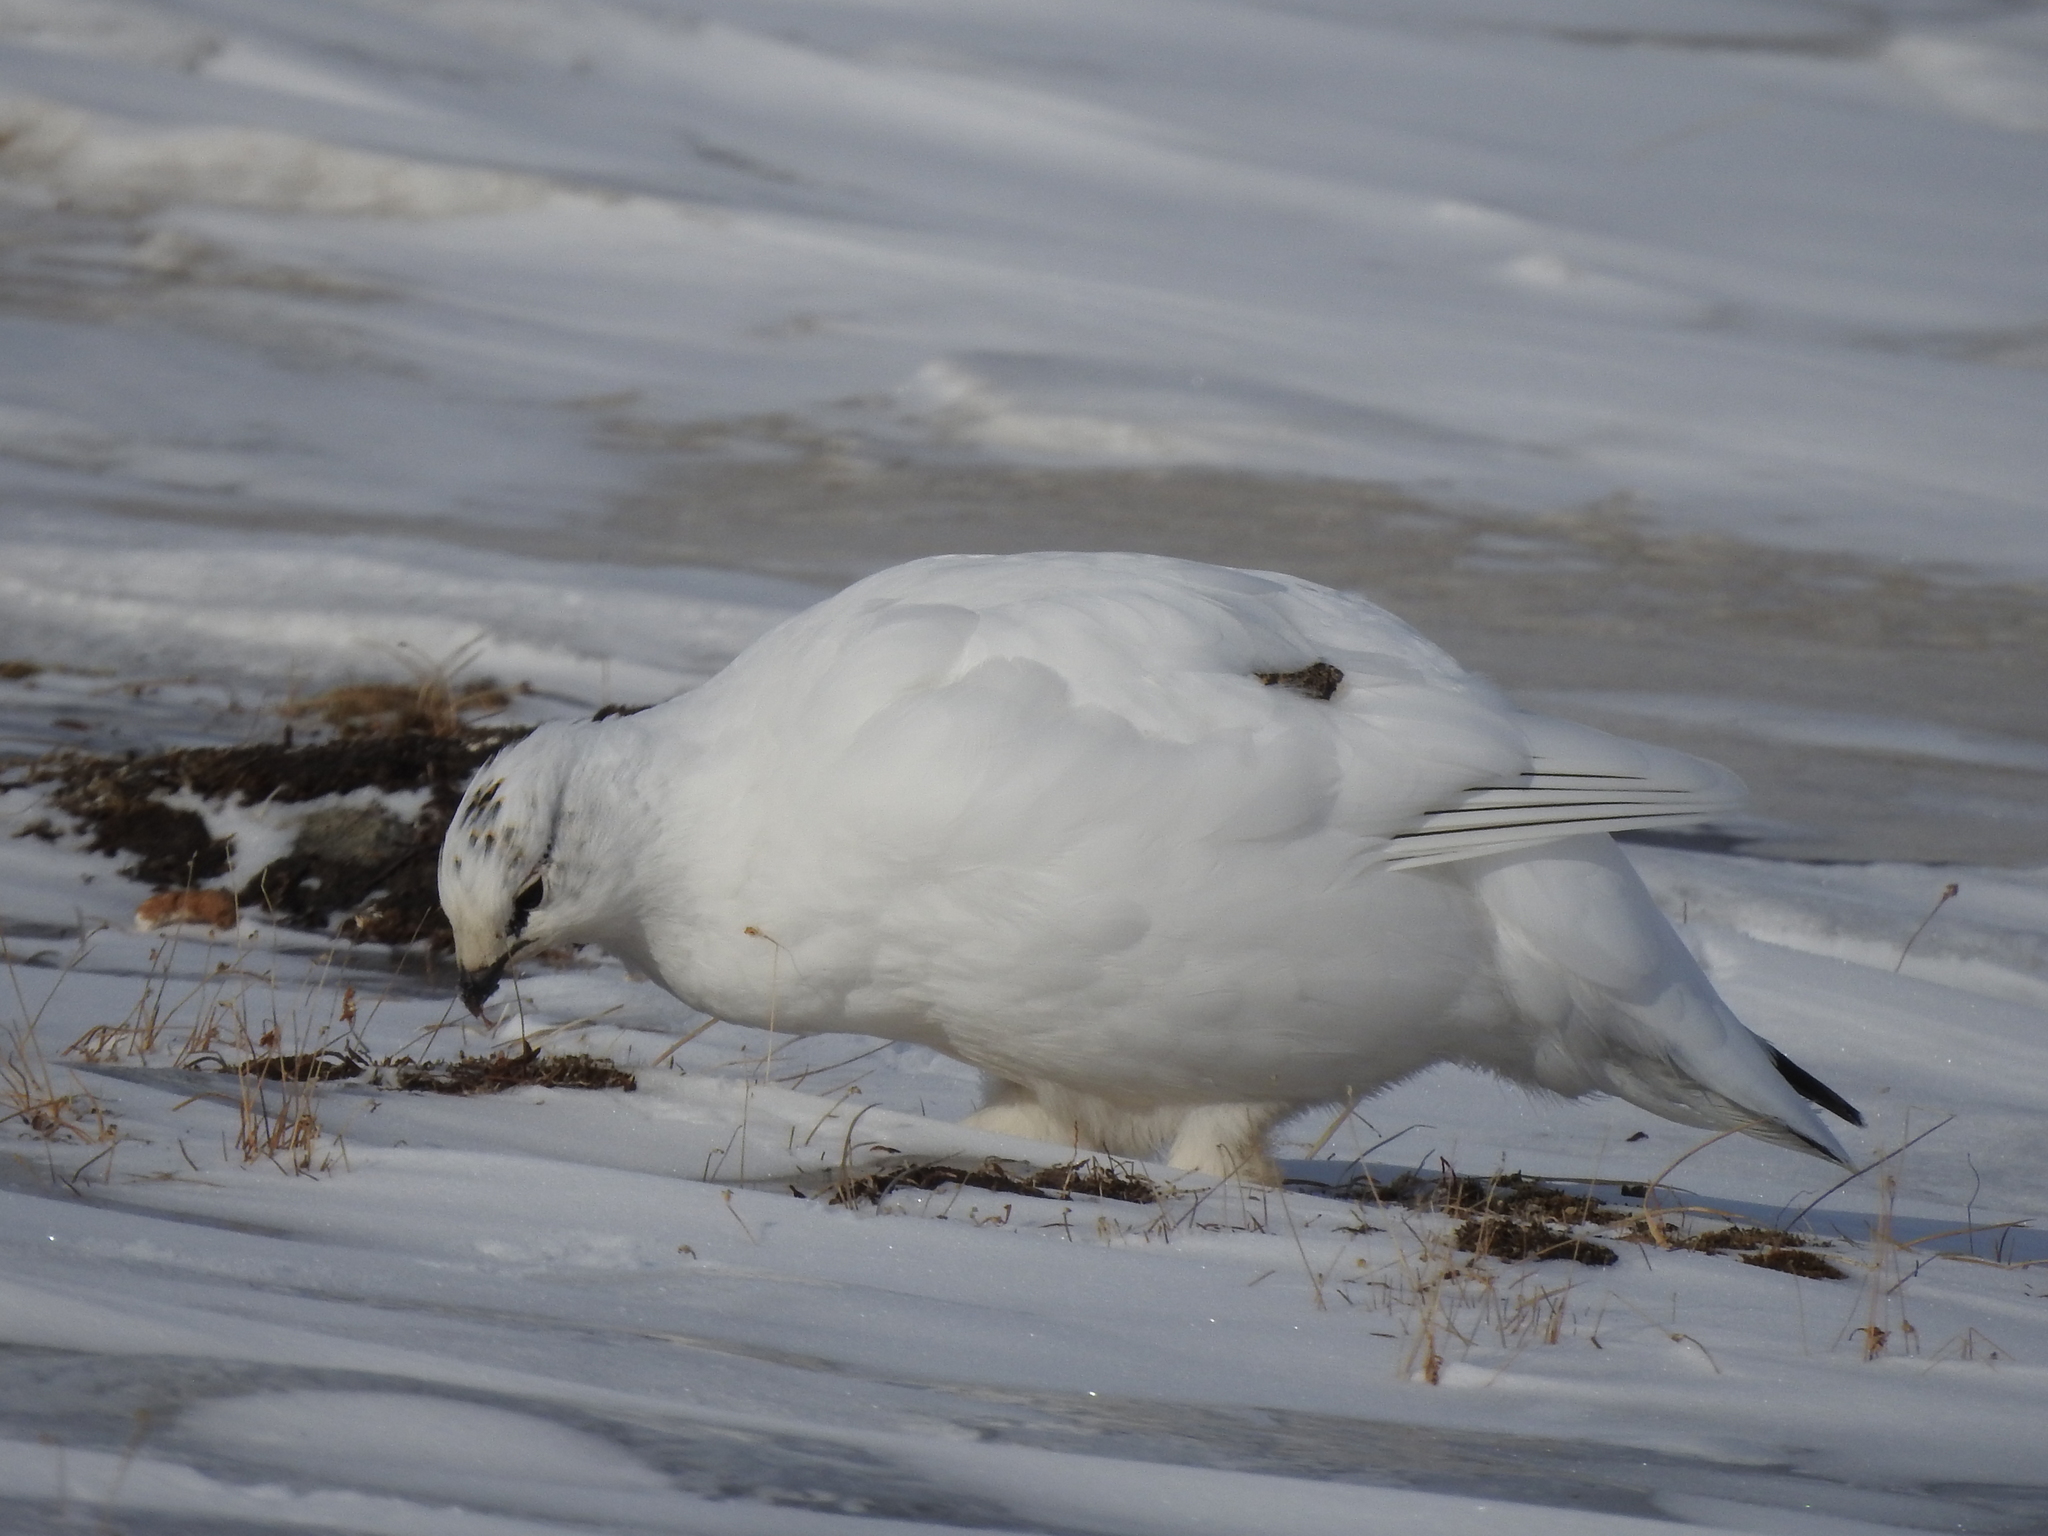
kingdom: Animalia
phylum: Chordata
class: Aves
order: Galliformes
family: Phasianidae
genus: Lagopus
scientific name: Lagopus muta
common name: Rock ptarmigan
